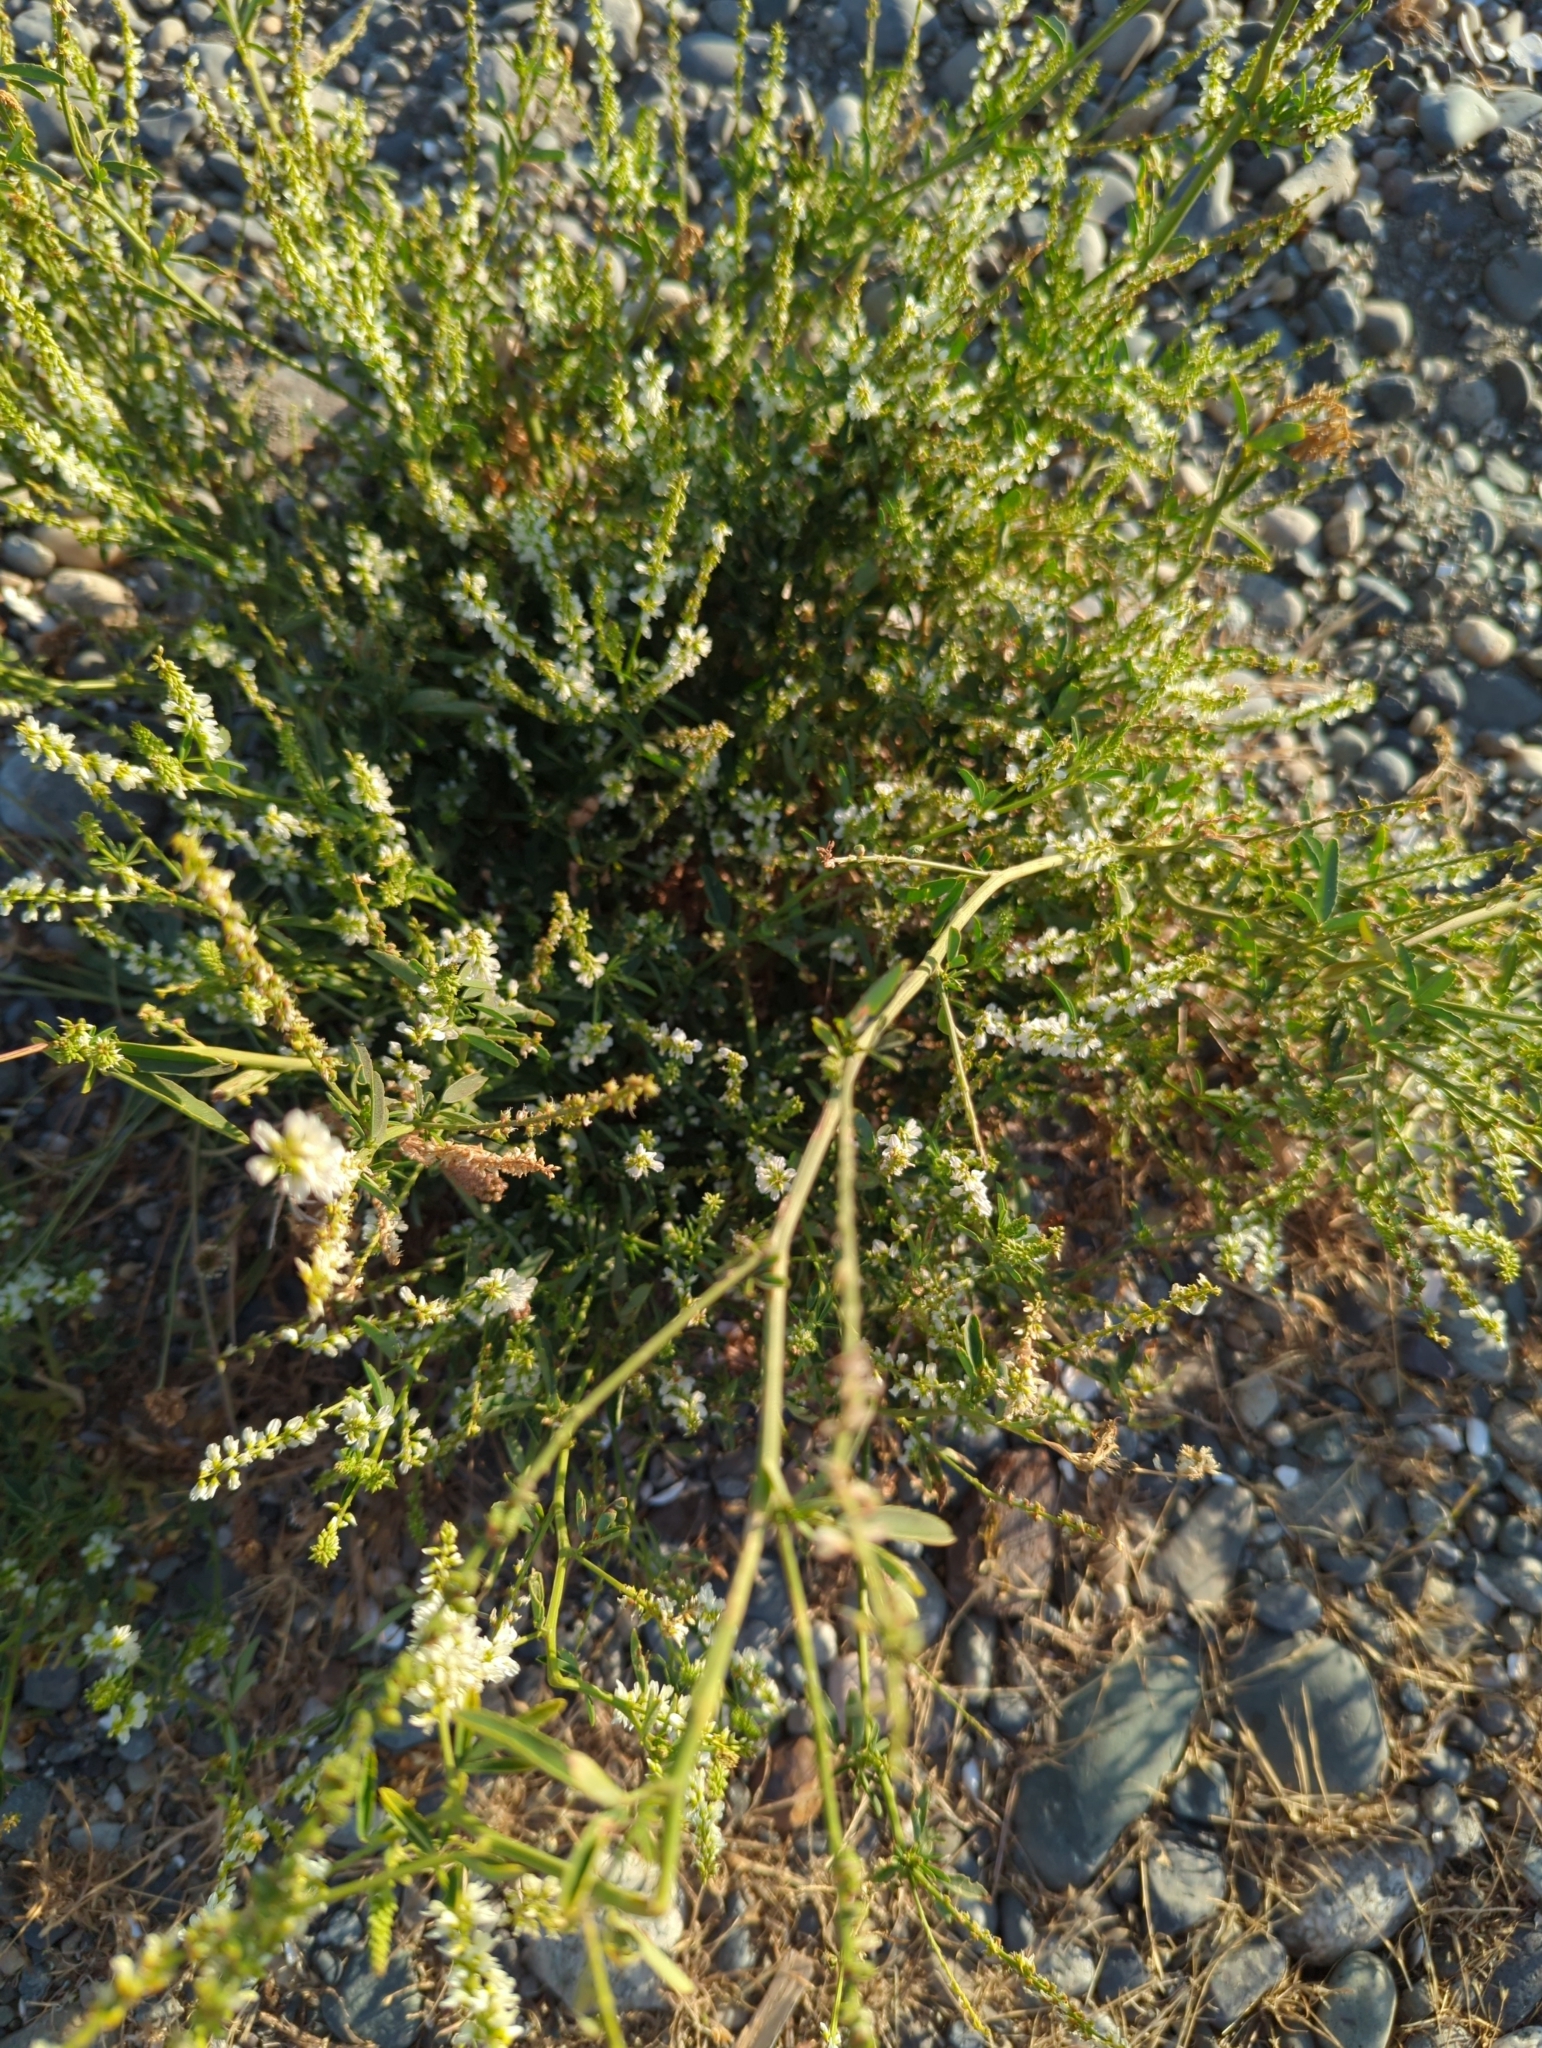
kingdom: Plantae
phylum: Tracheophyta
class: Magnoliopsida
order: Fabales
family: Fabaceae
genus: Melilotus
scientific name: Melilotus albus
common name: White melilot
